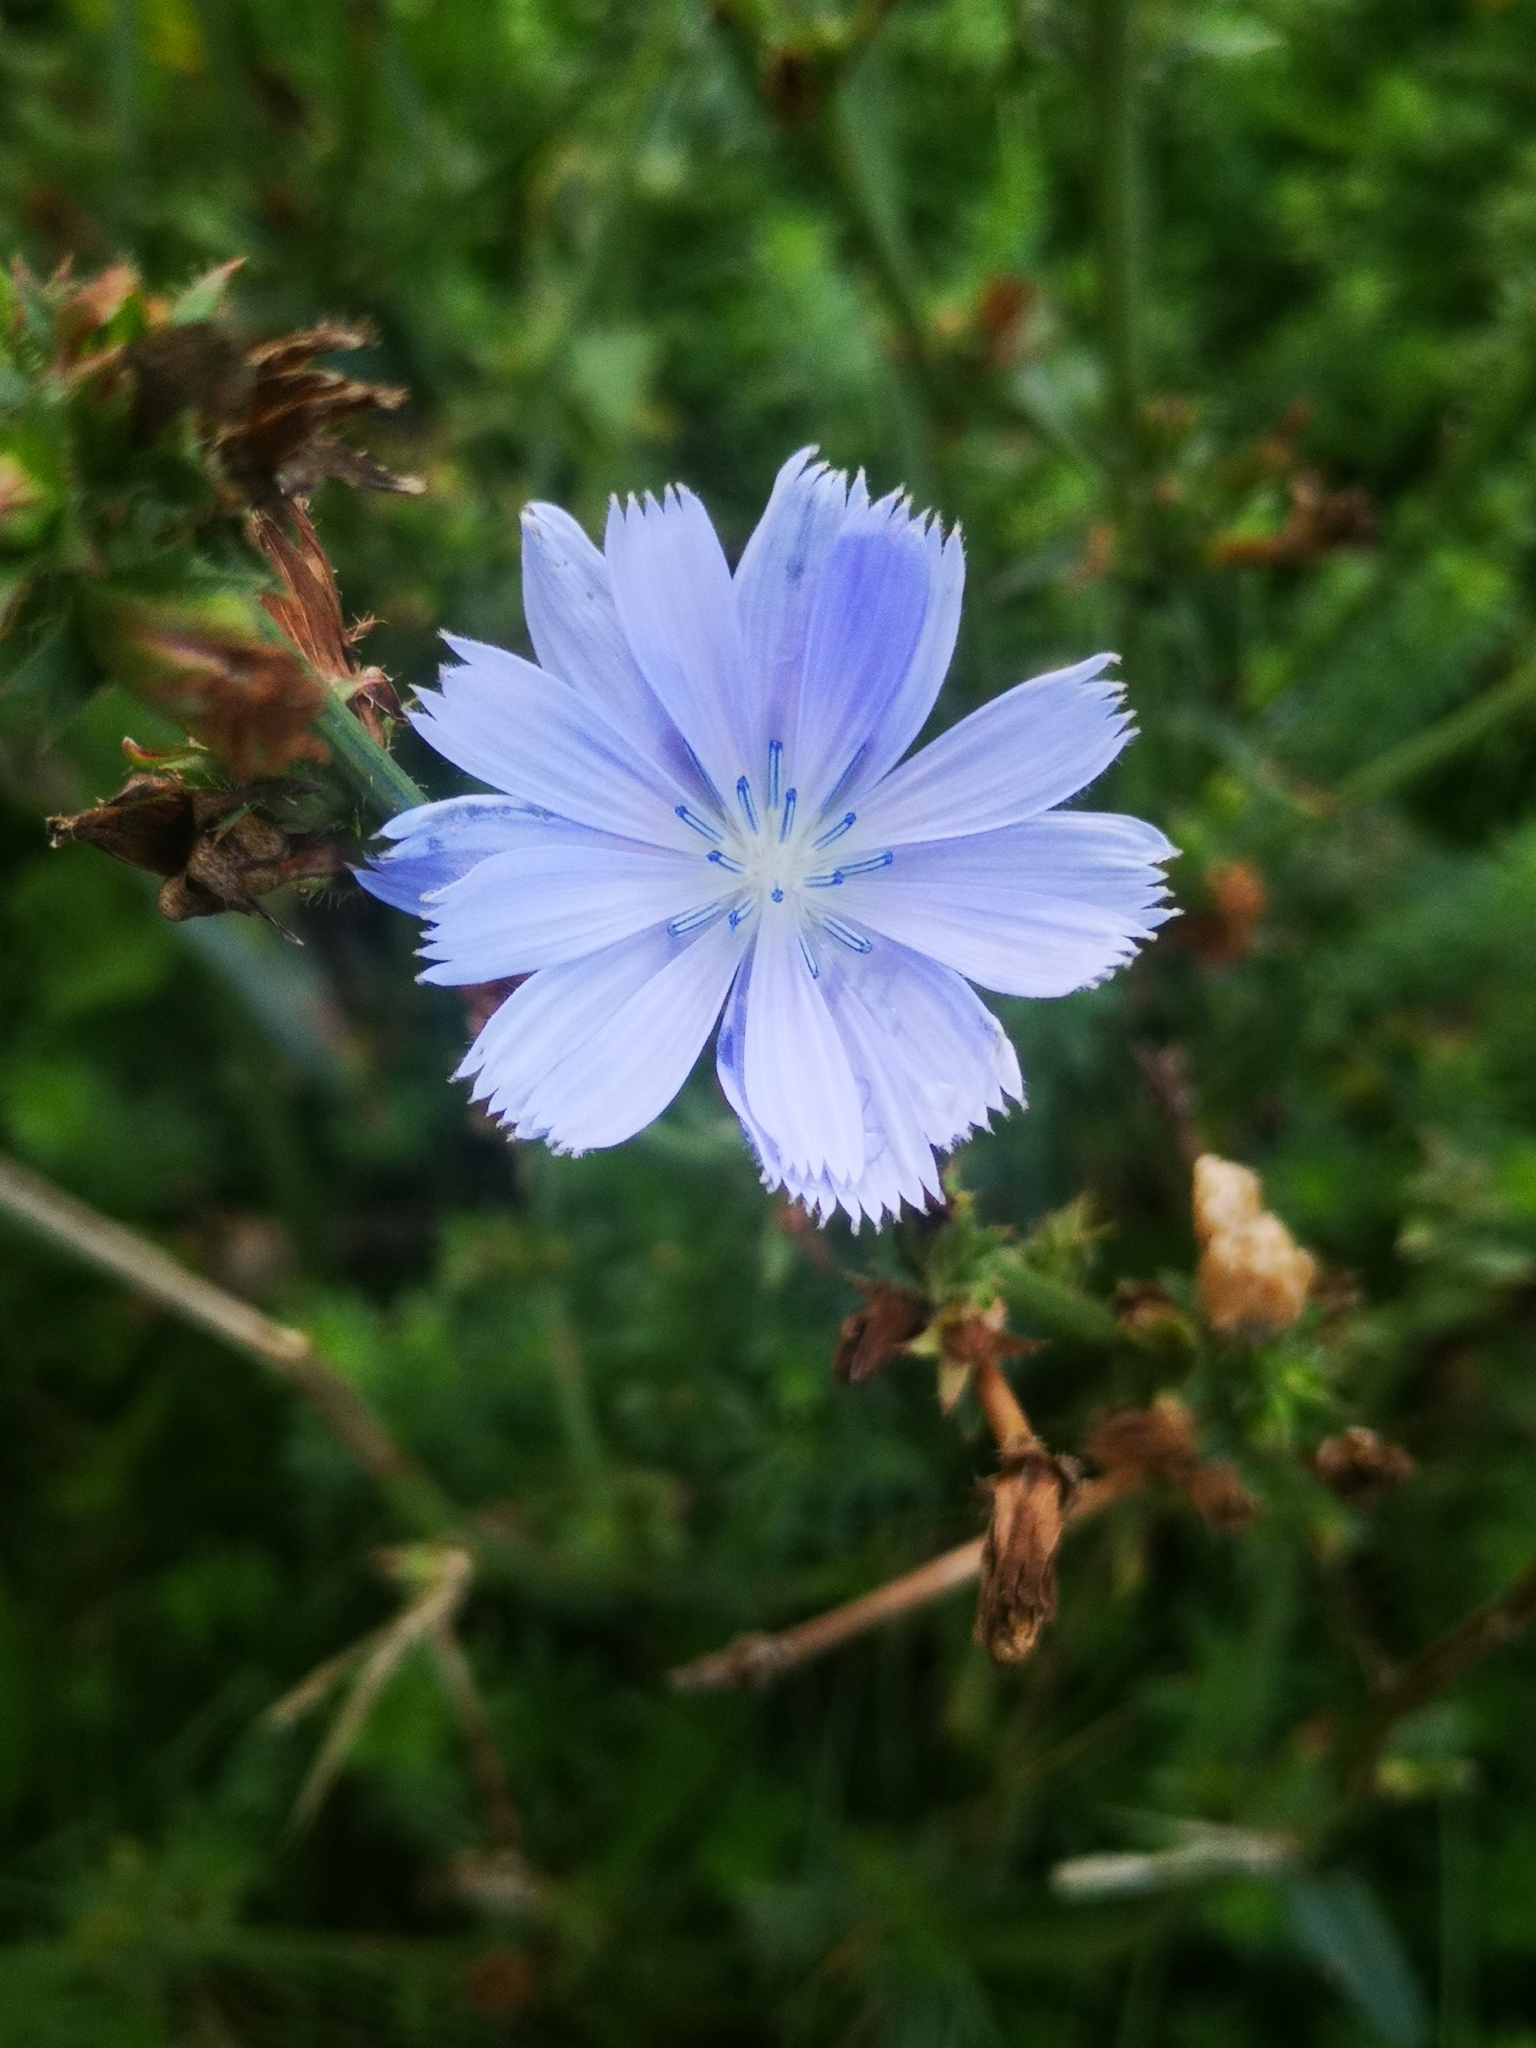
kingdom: Plantae
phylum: Tracheophyta
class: Magnoliopsida
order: Asterales
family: Asteraceae
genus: Cichorium
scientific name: Cichorium intybus
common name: Chicory
